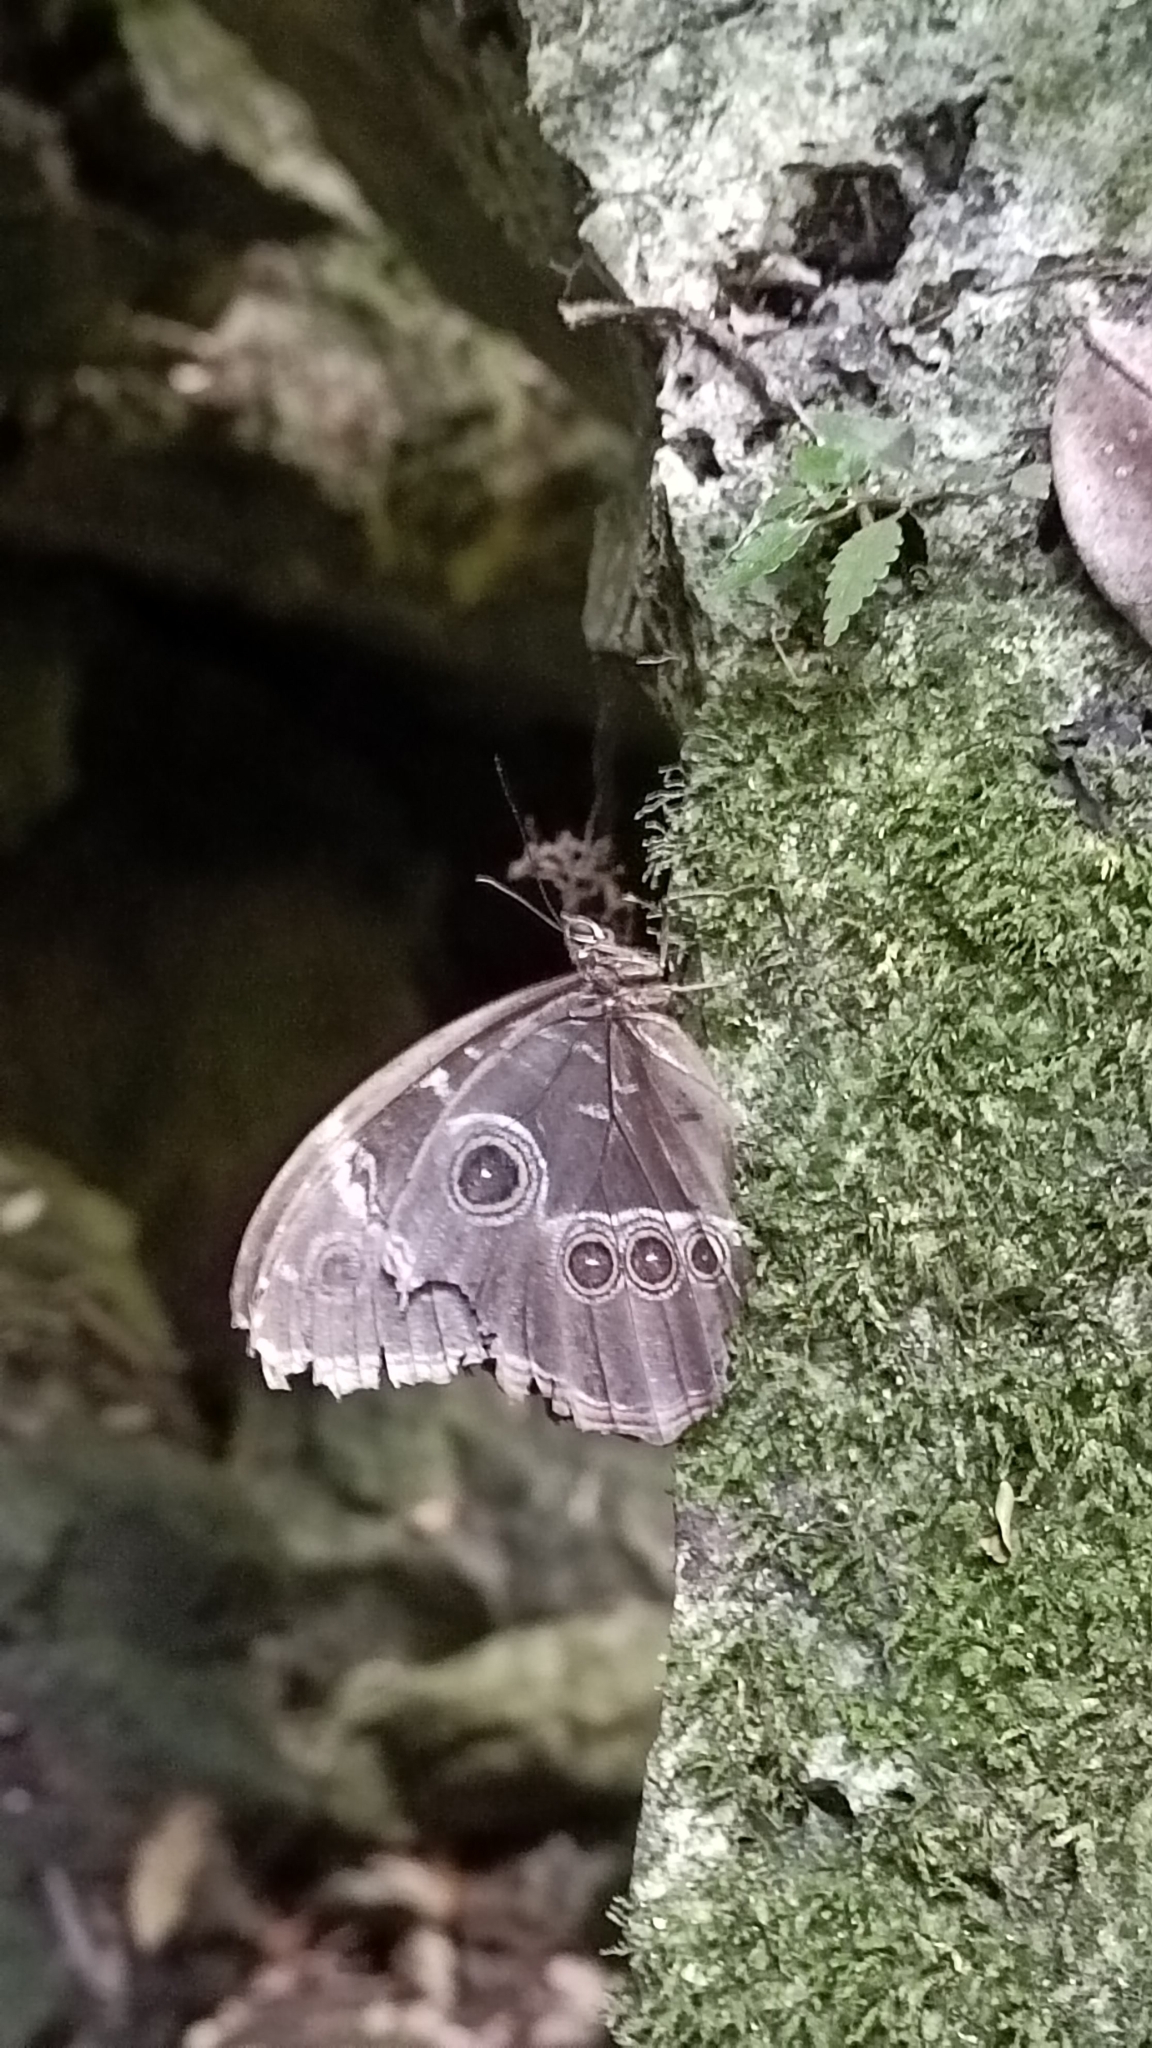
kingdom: Animalia
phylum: Arthropoda
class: Insecta
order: Lepidoptera
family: Nymphalidae
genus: Morpho
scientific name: Morpho helenor
